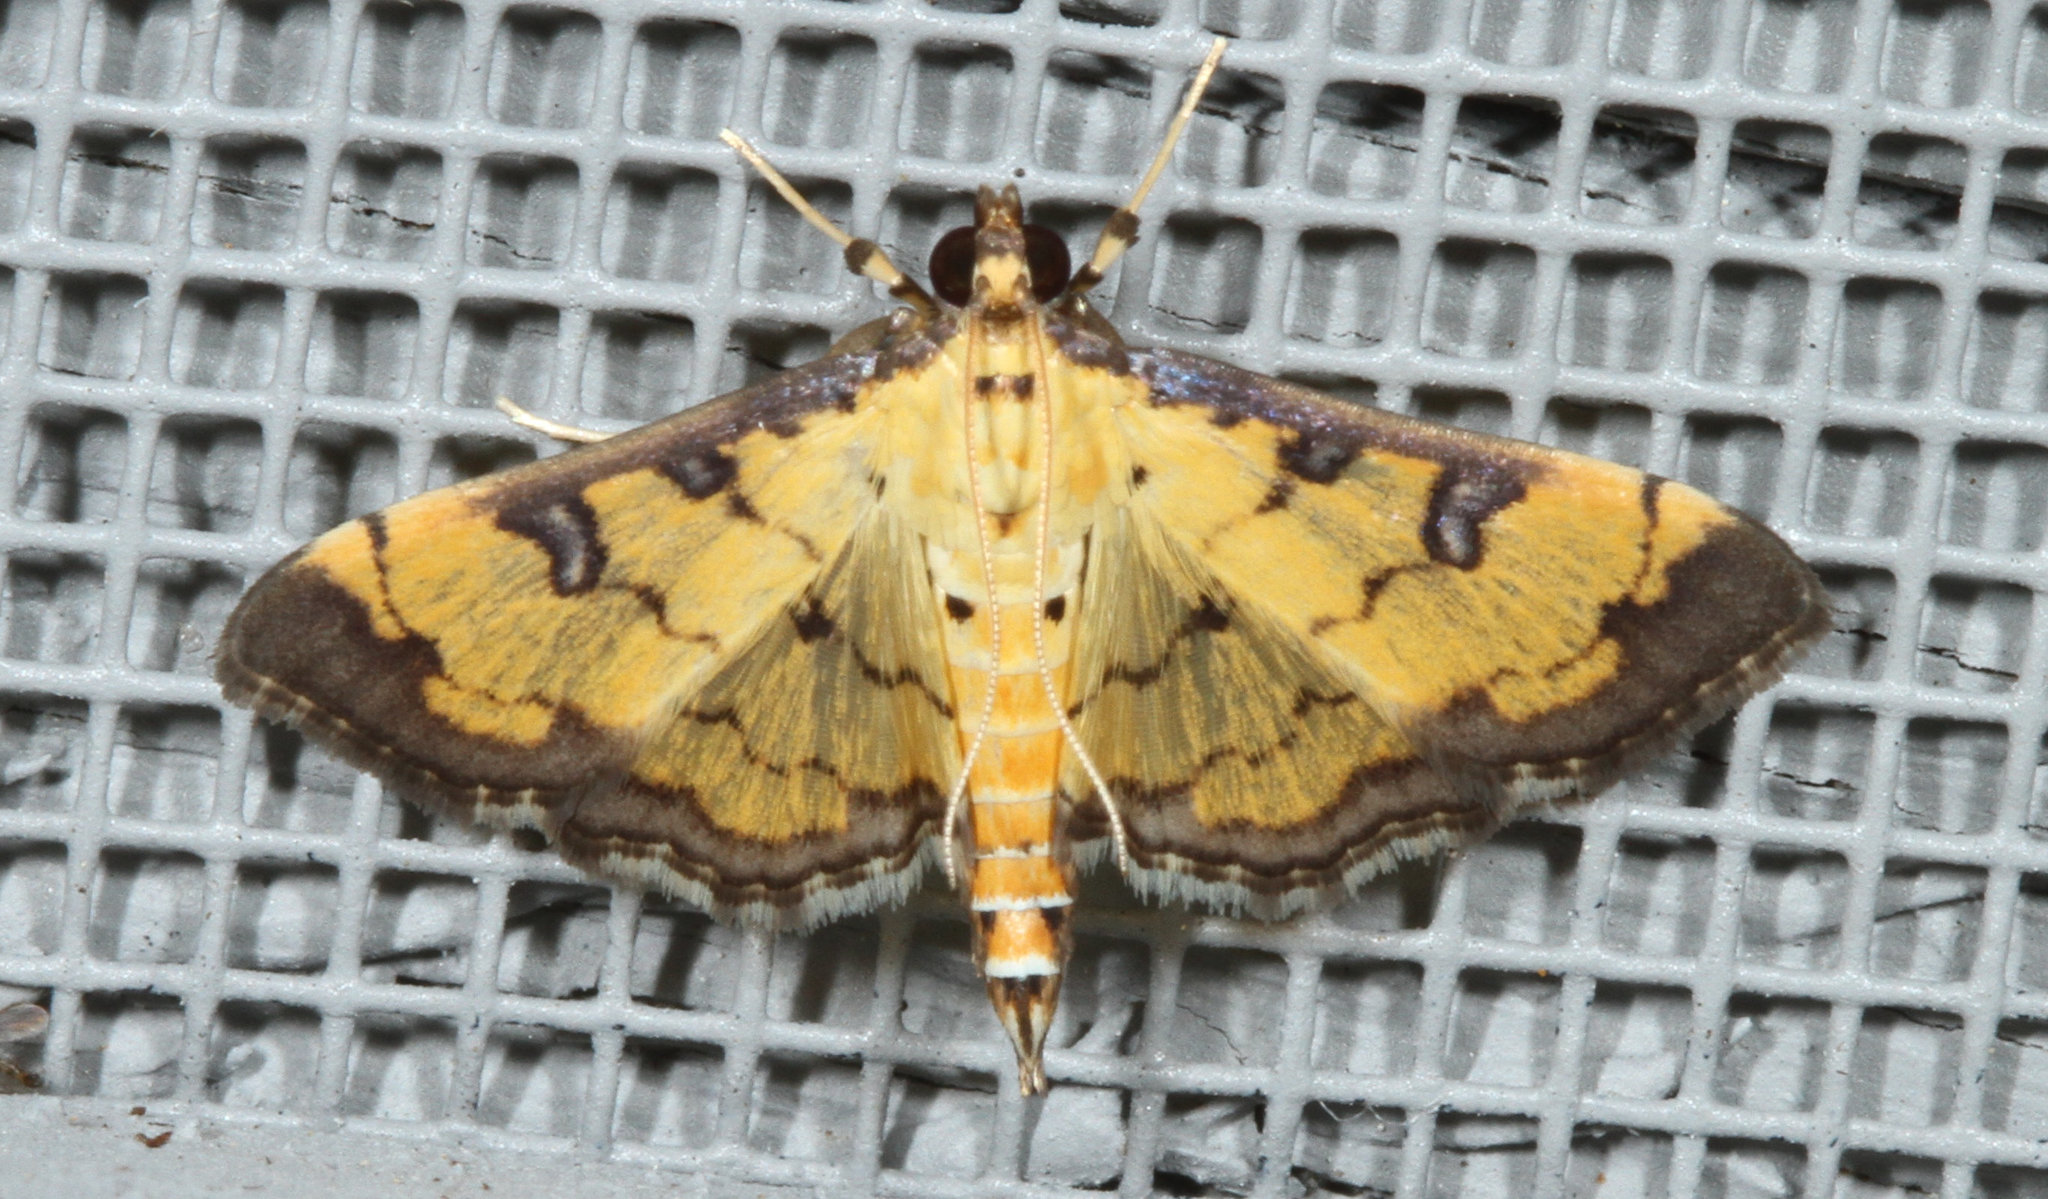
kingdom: Animalia
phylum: Arthropoda
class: Insecta
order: Lepidoptera
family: Crambidae
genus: Ategumia
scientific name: Ategumia ebulealis
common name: Moth
